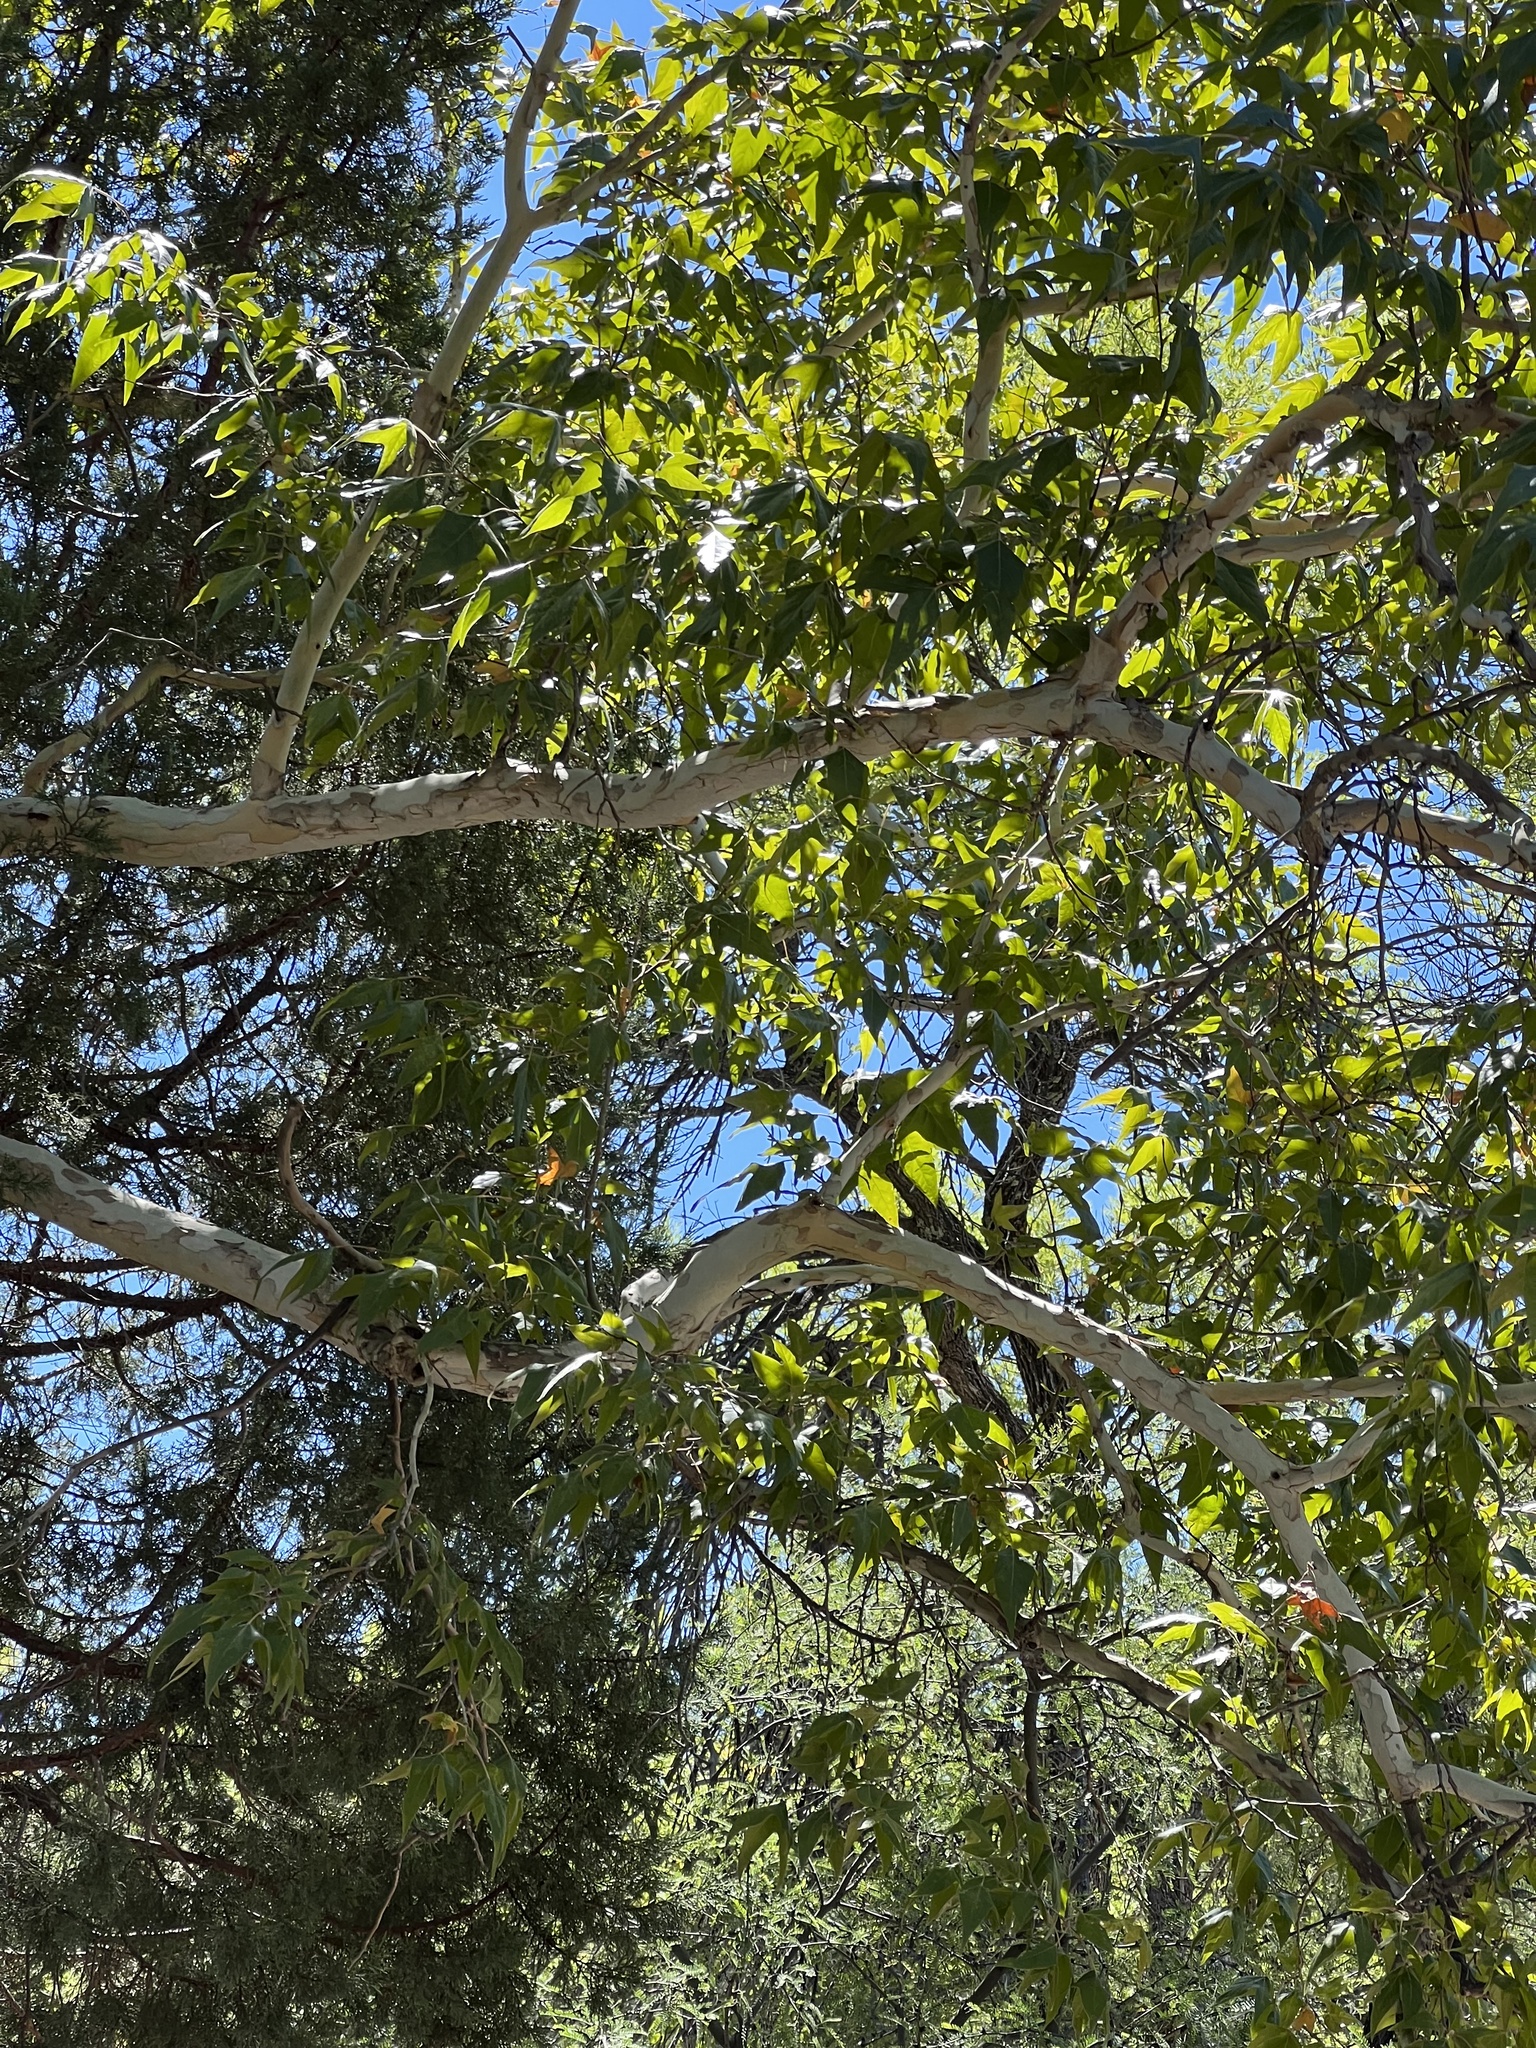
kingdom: Plantae
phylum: Tracheophyta
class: Magnoliopsida
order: Proteales
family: Platanaceae
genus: Platanus
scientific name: Platanus wrightii
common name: Arizona sycamore
